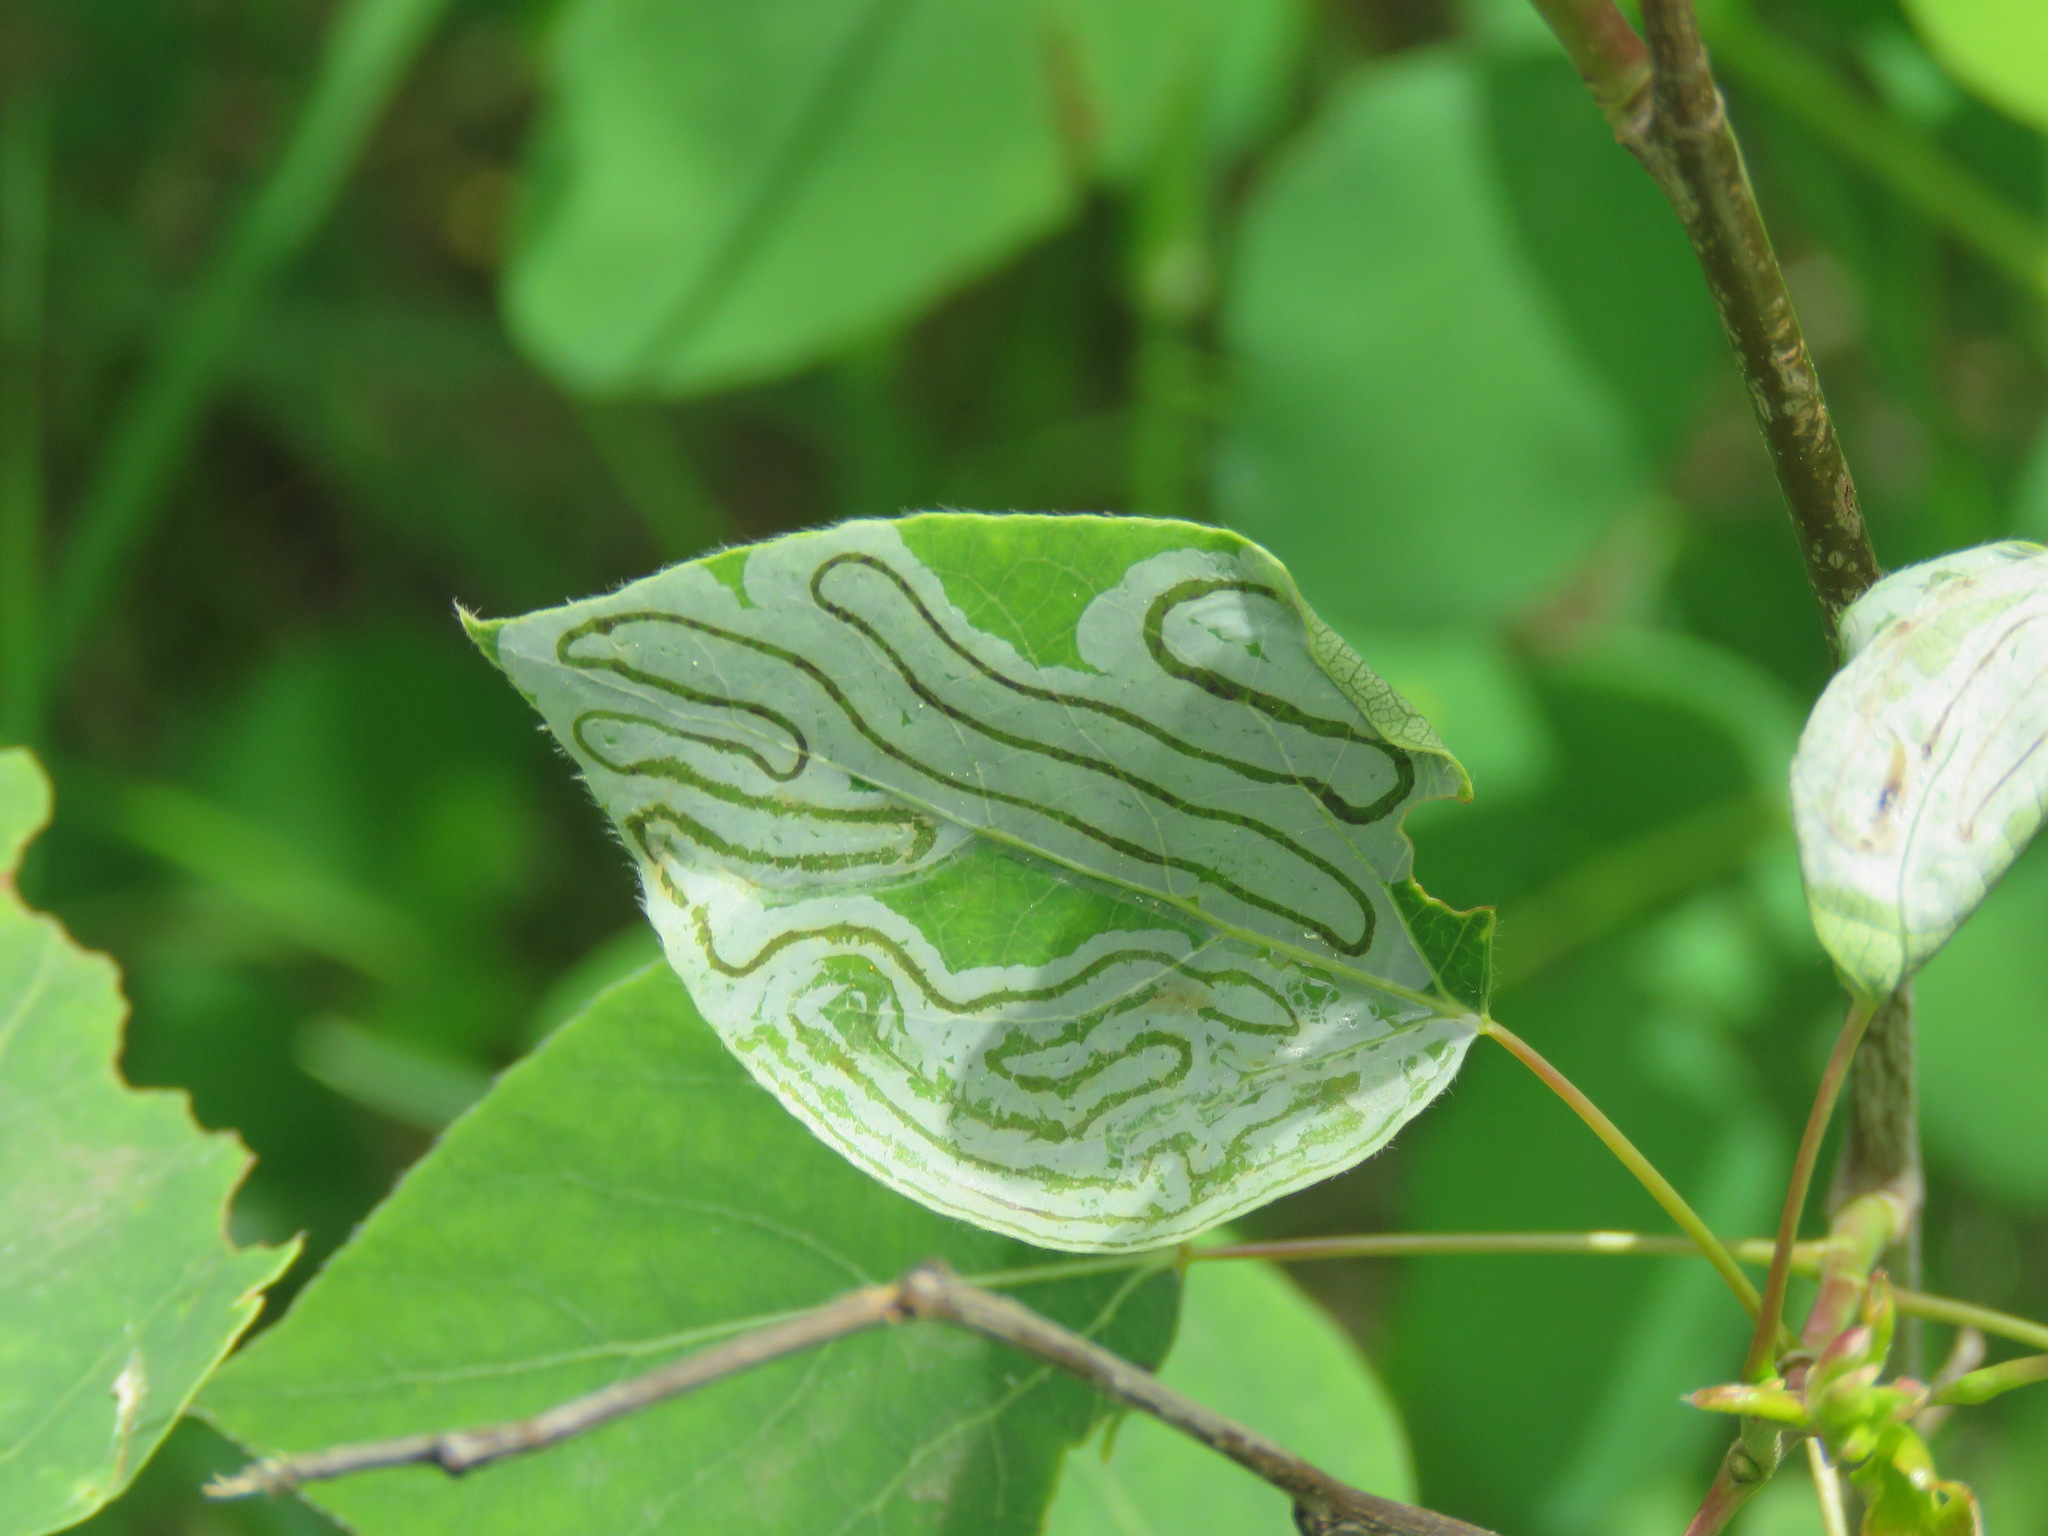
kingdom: Animalia
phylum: Arthropoda
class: Insecta
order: Lepidoptera
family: Gracillariidae
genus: Phyllocnistis
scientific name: Phyllocnistis populiella
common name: Aspen serpentine leafminer moth
